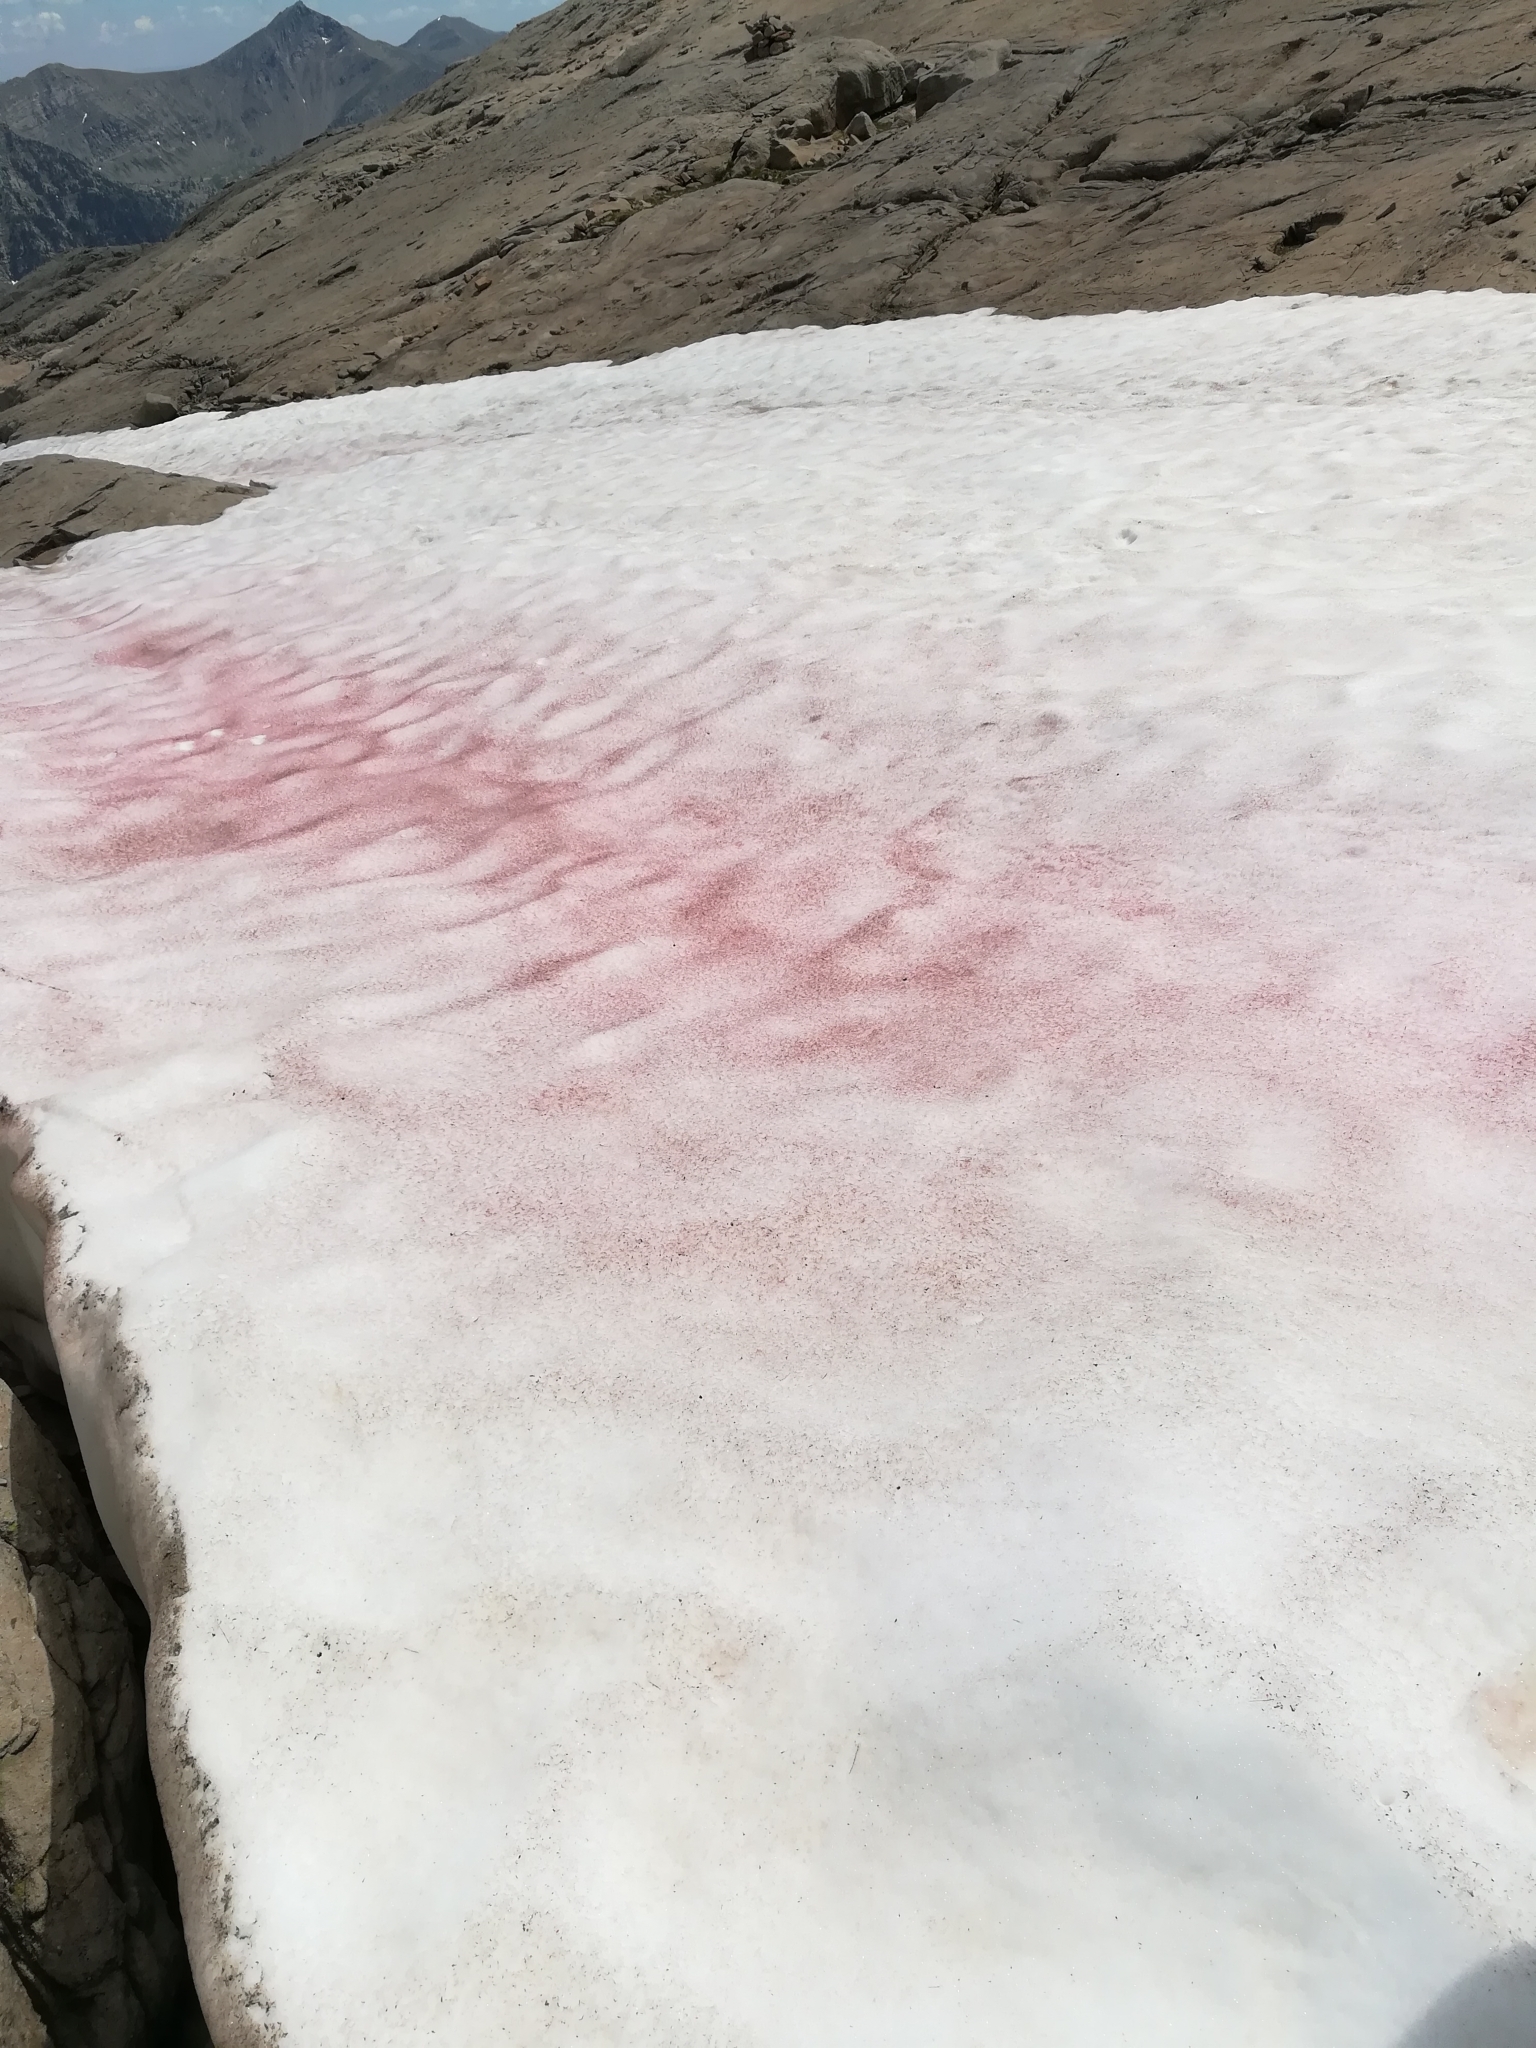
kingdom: Plantae
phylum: Chlorophyta
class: Chlorophyceae
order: Volvocales
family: Chlamydomonadaceae
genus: Chlamydomonas
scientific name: Chlamydomonas nivalis
